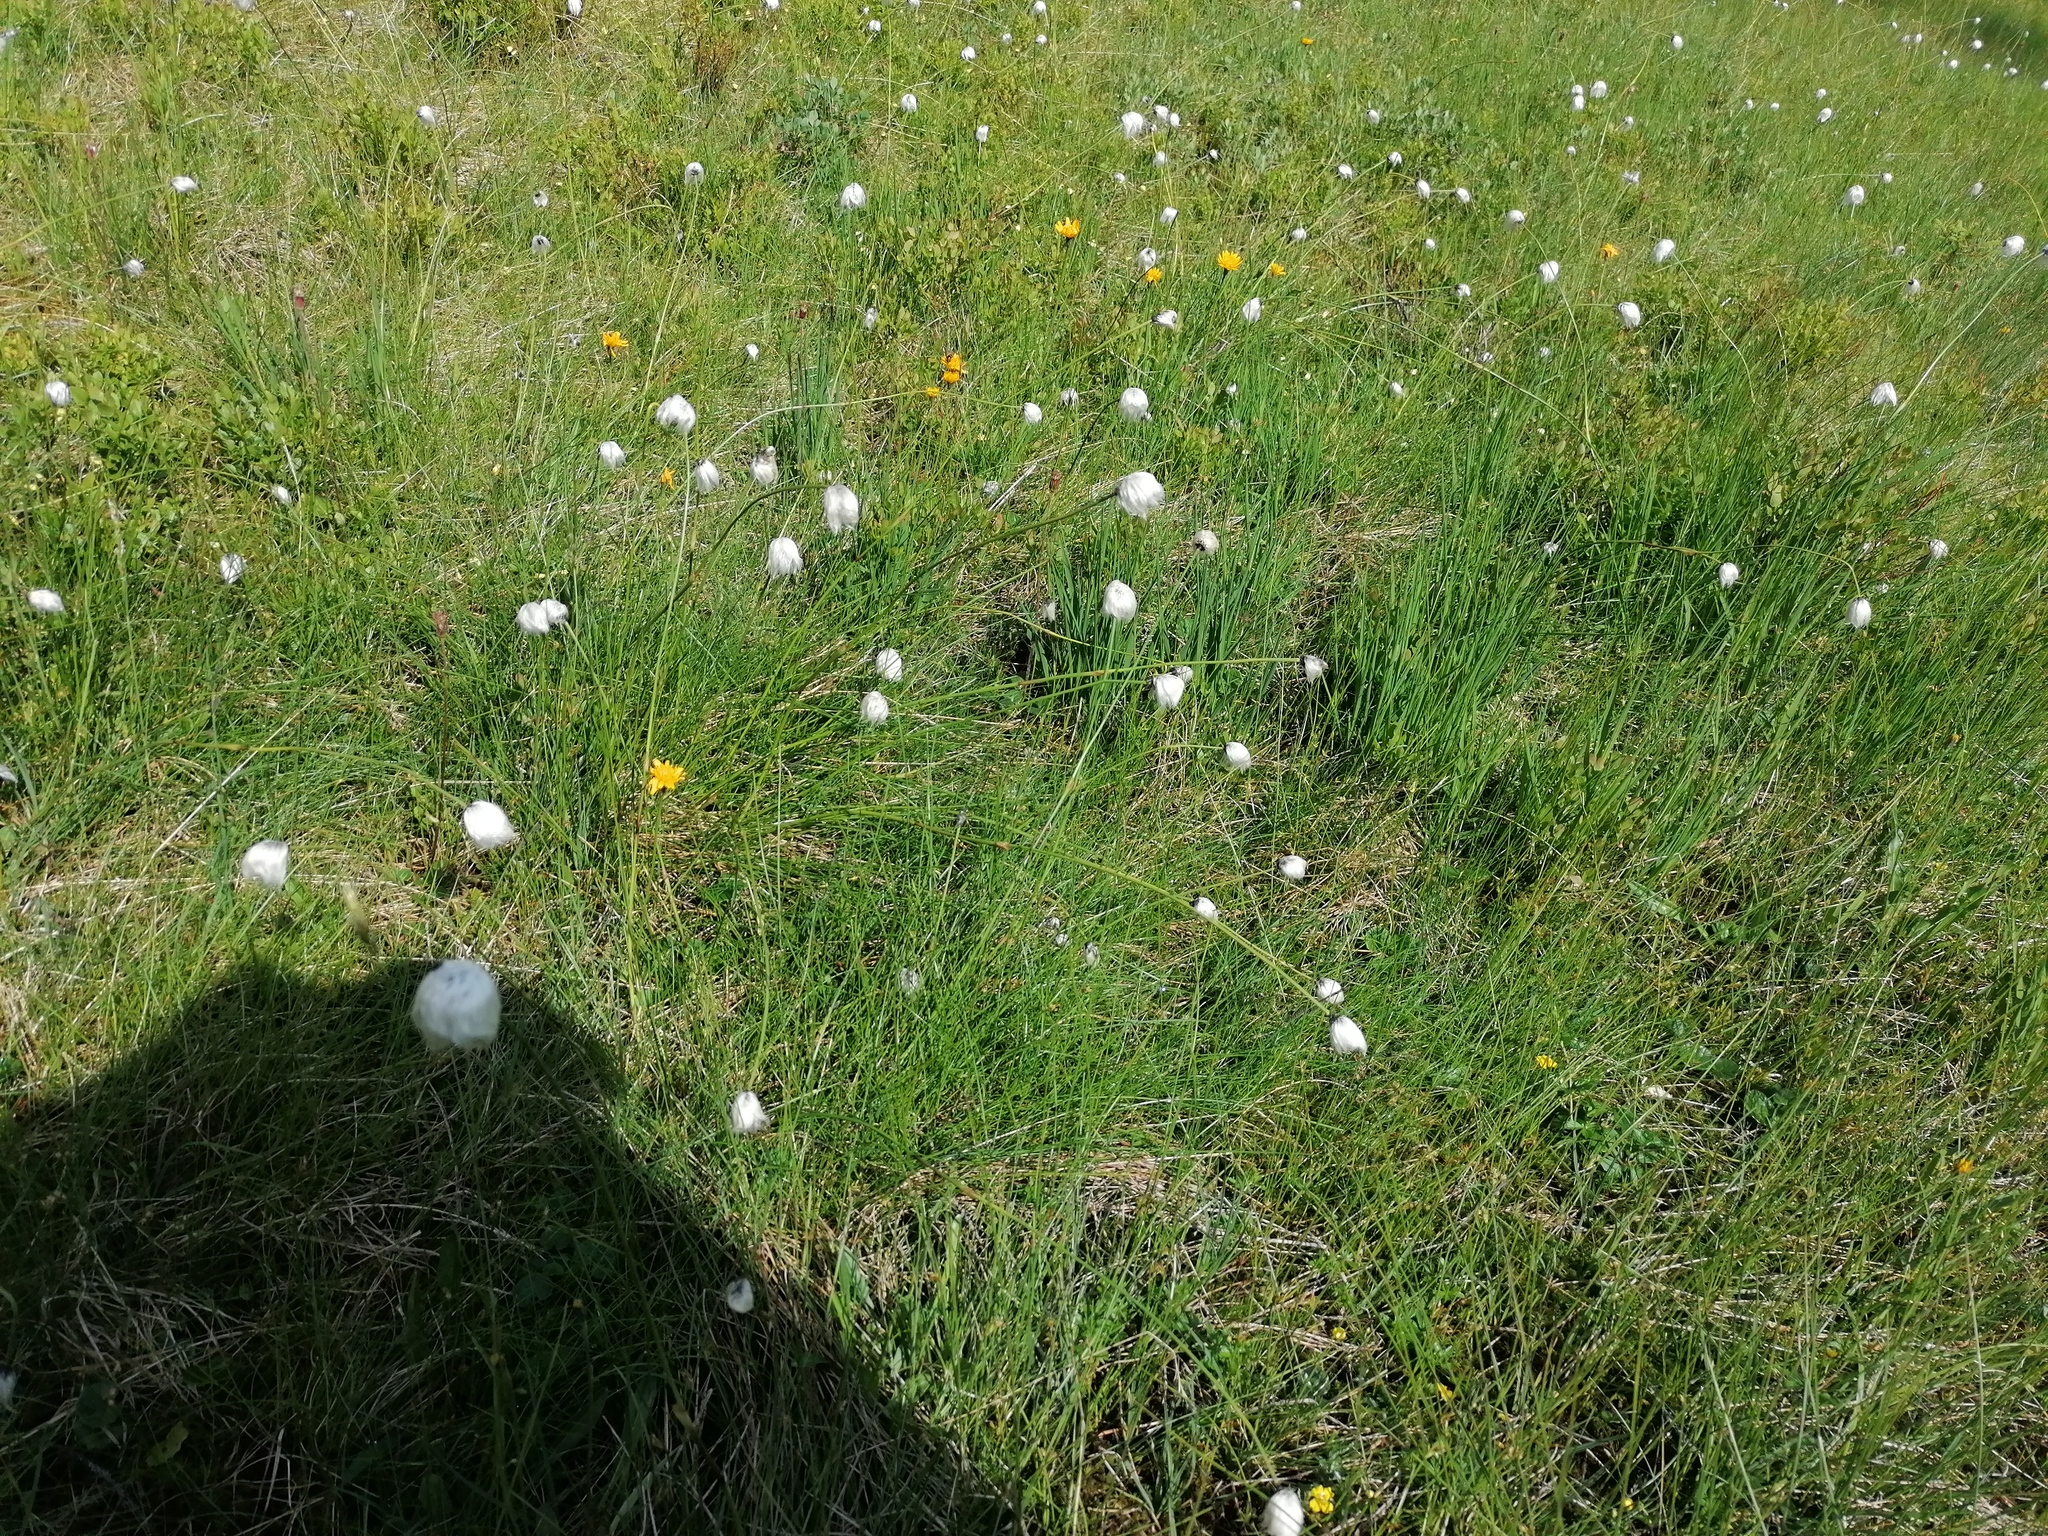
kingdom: Plantae
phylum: Tracheophyta
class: Liliopsida
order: Poales
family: Cyperaceae
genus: Eriophorum
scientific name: Eriophorum vaginatum
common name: Hare's-tail cottongrass
